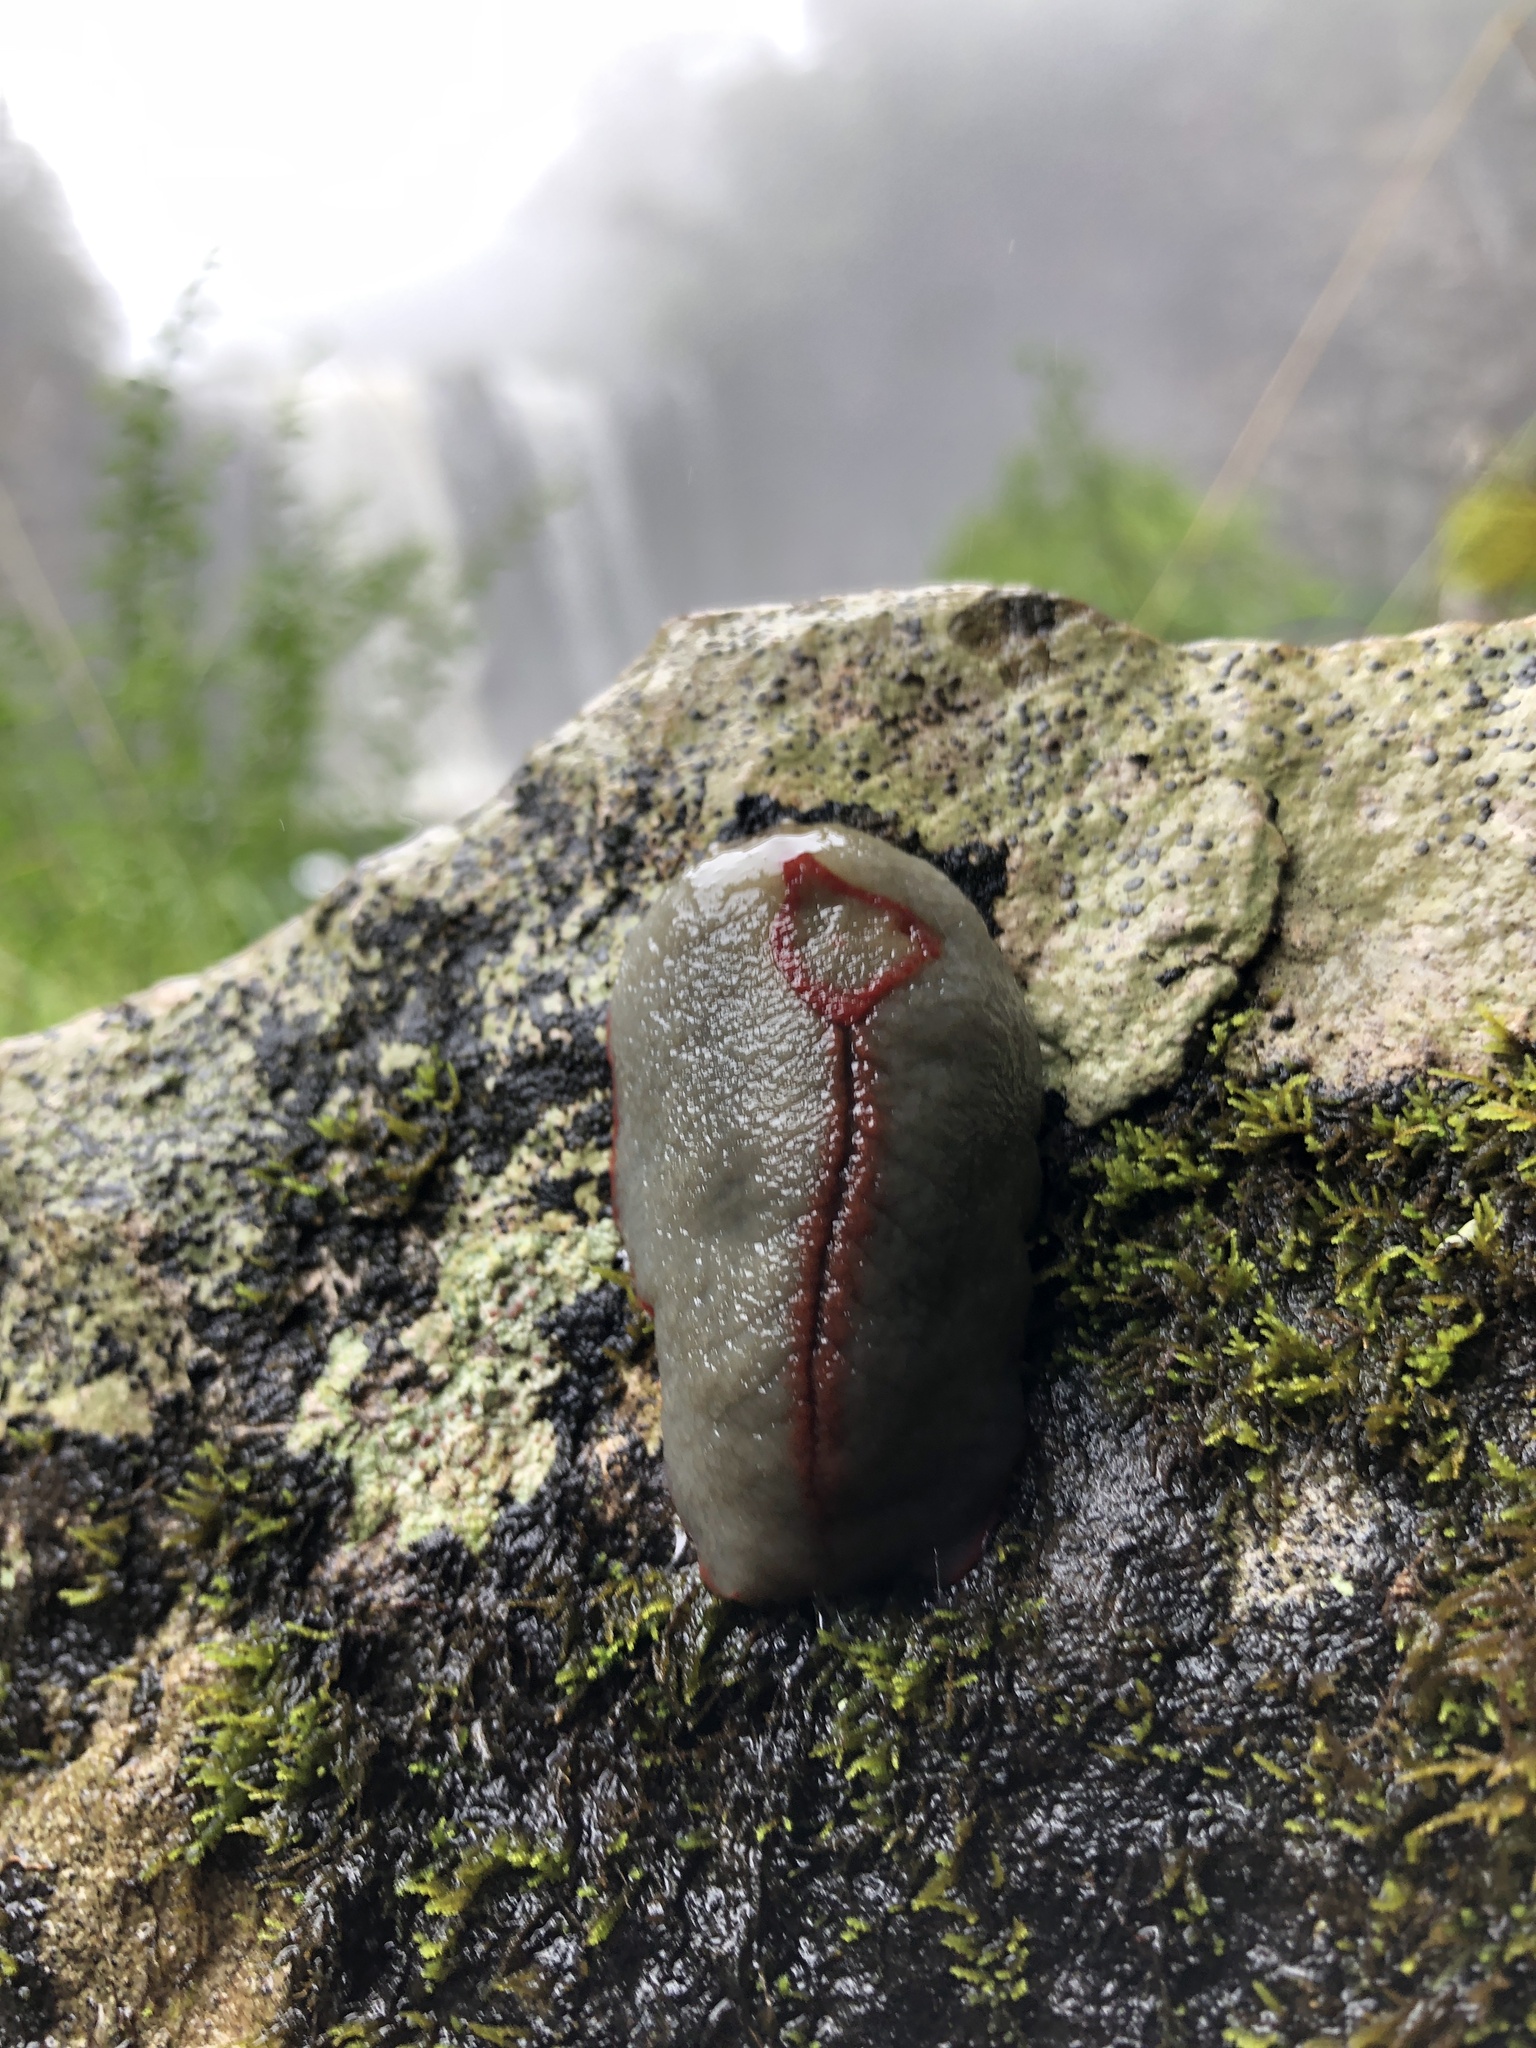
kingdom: Animalia
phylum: Mollusca
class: Gastropoda
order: Stylommatophora
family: Athoracophoridae
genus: Triboniophorus
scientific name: Triboniophorus graeffei
